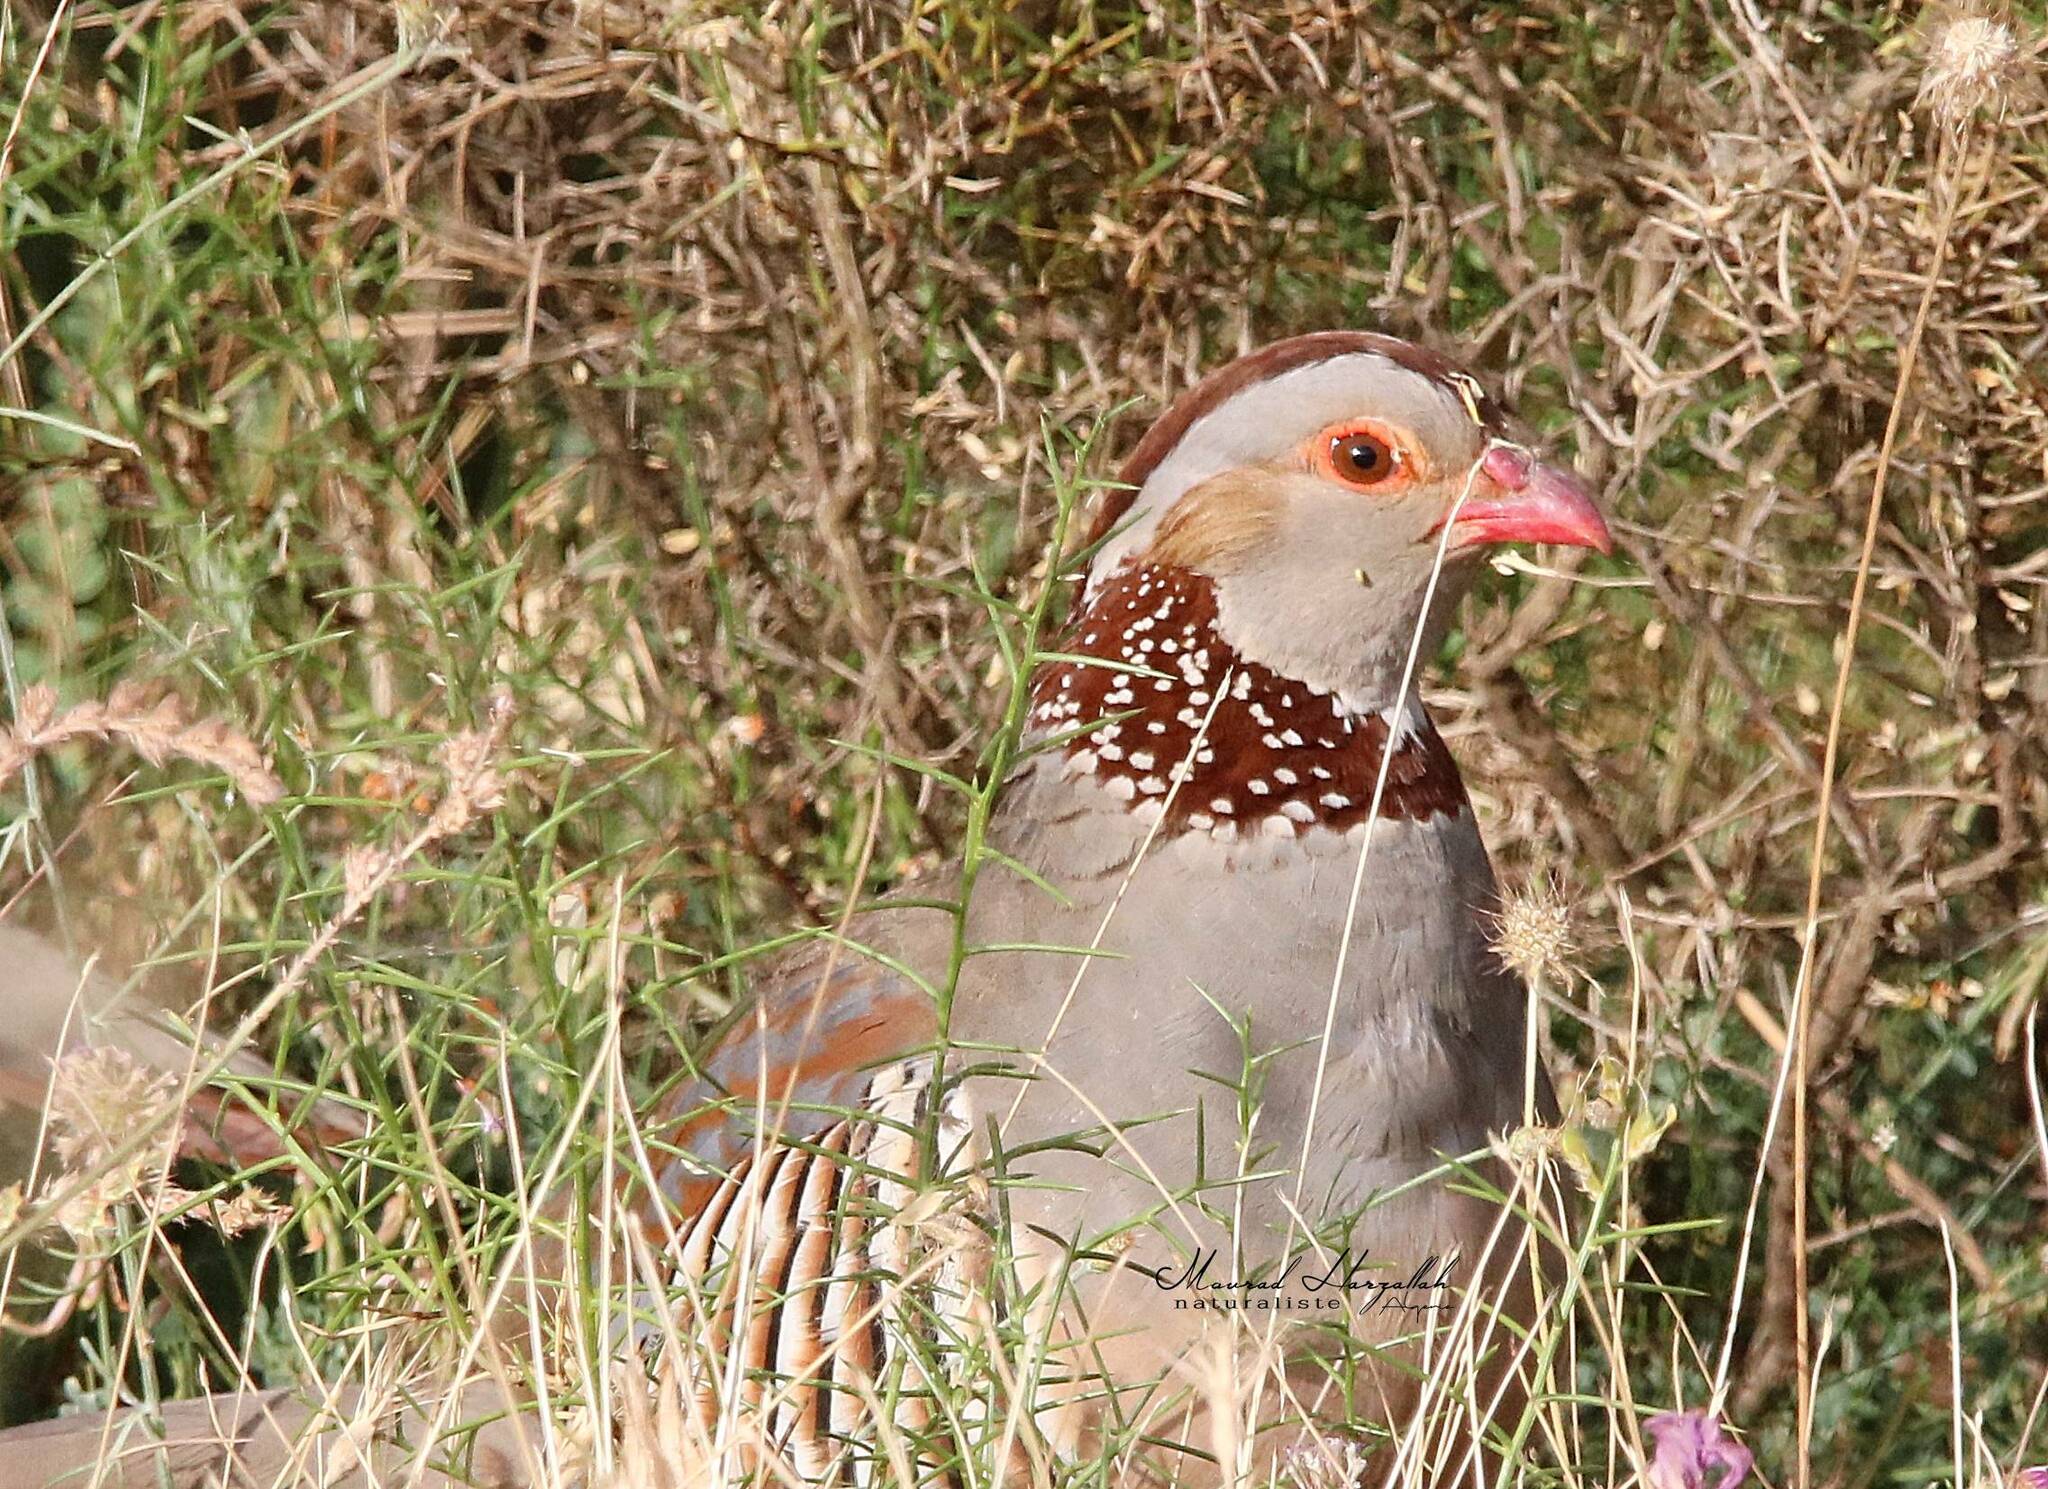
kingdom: Animalia
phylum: Chordata
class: Aves
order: Galliformes
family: Phasianidae
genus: Alectoris
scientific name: Alectoris barbara
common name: Barbary partridge
